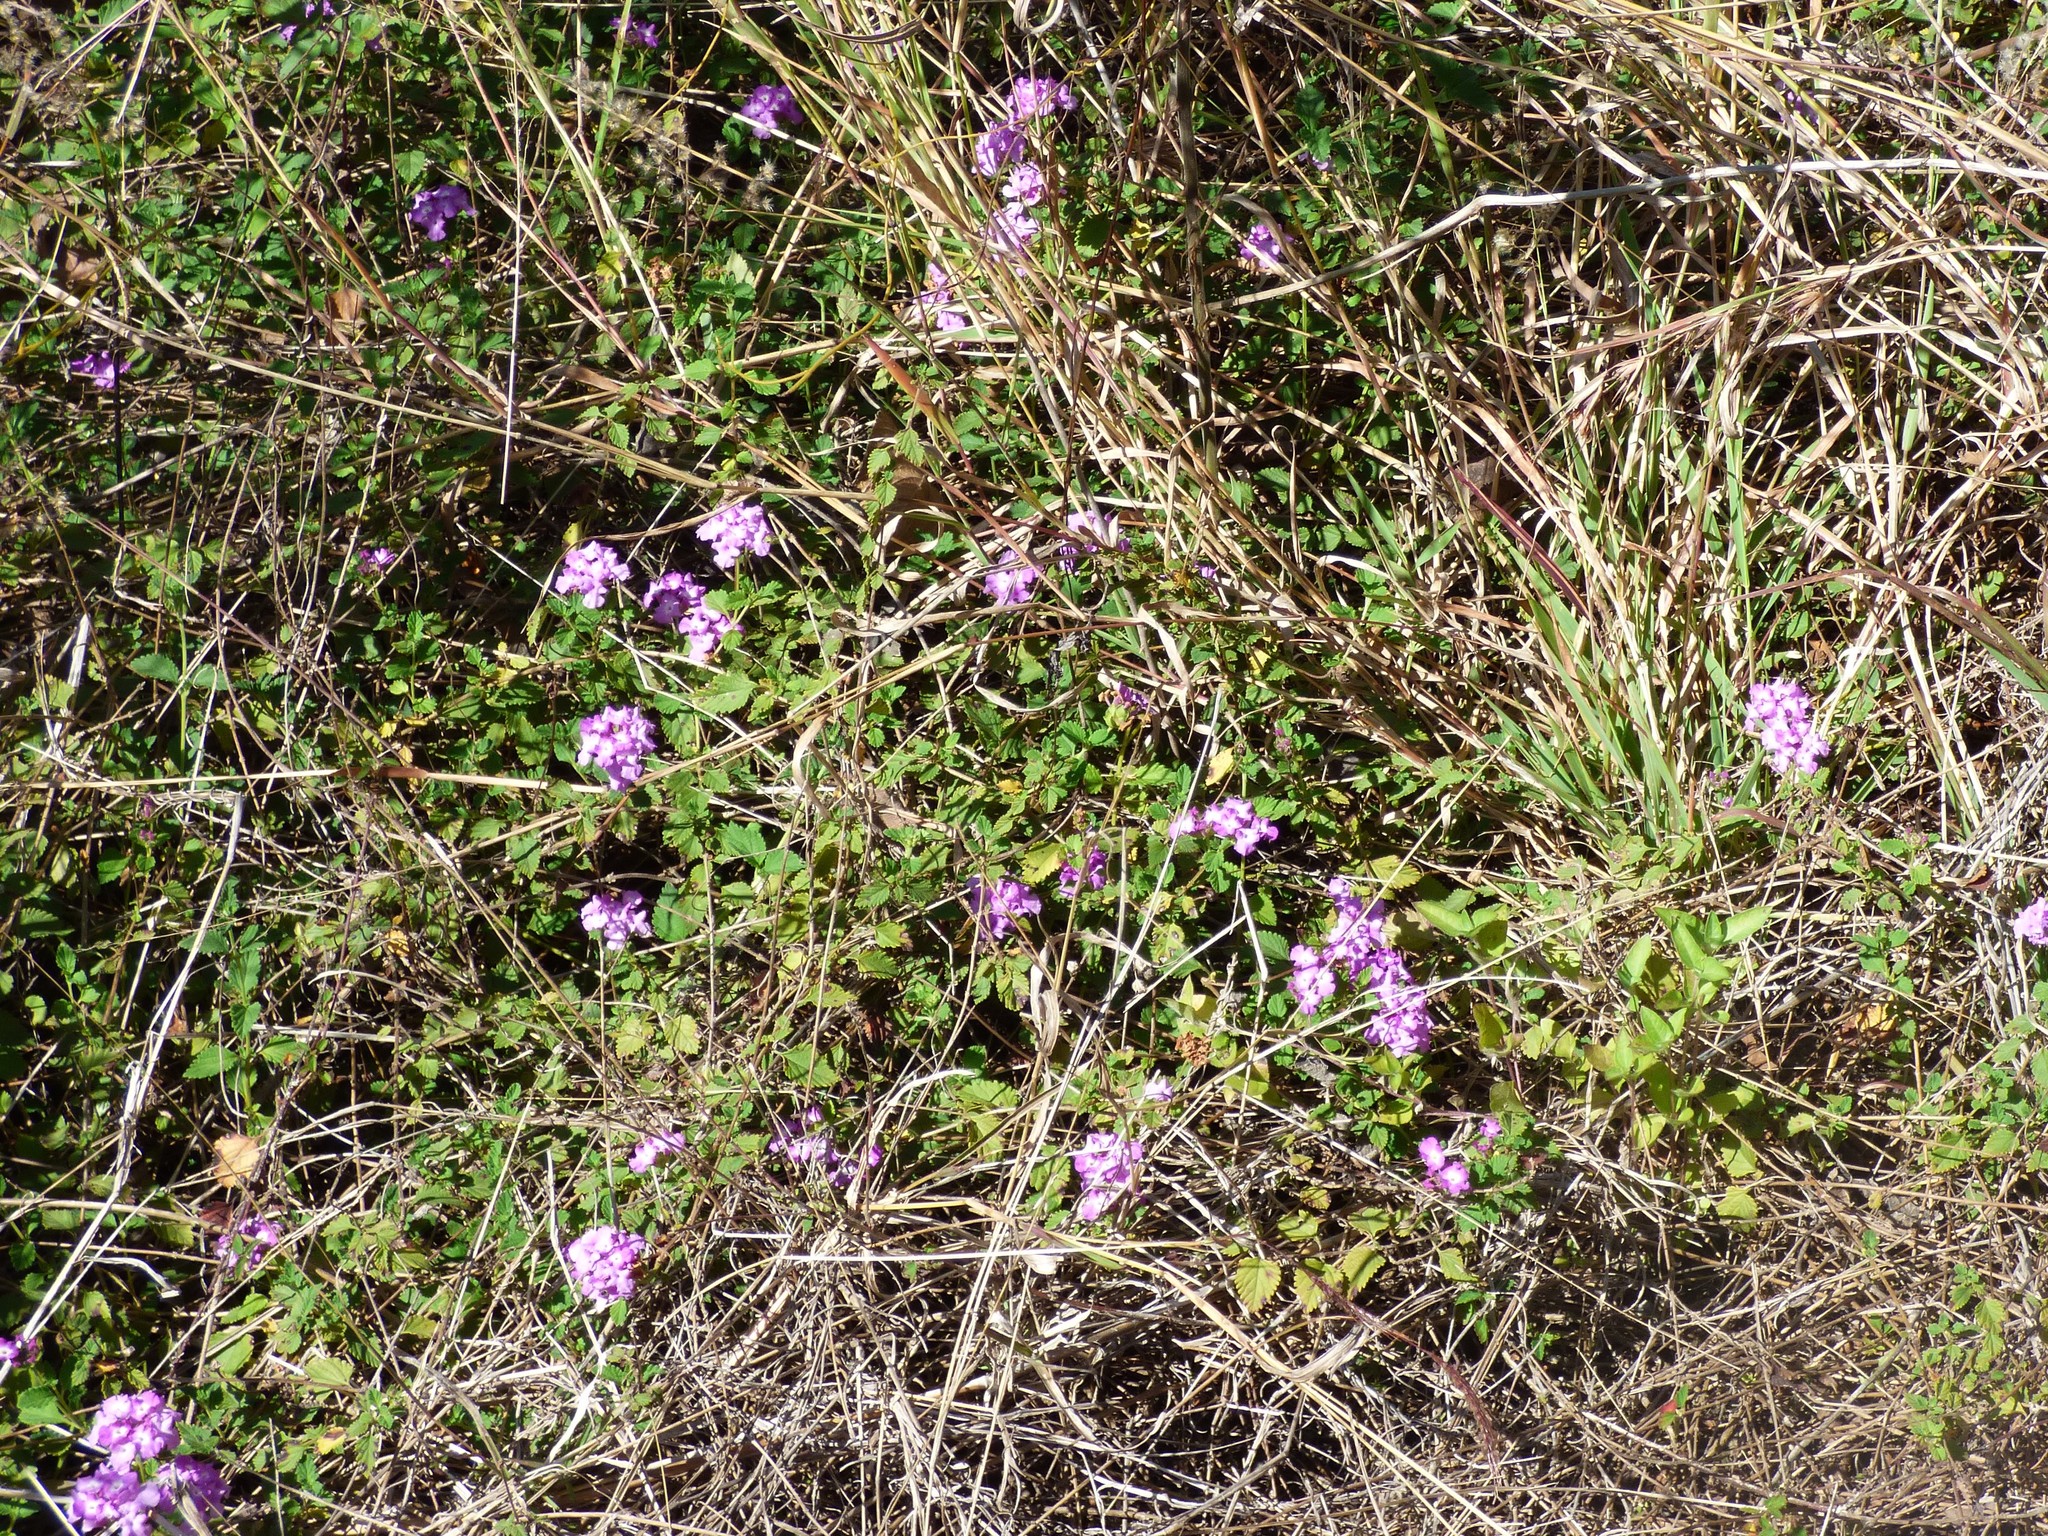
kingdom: Plantae
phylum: Tracheophyta
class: Magnoliopsida
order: Lamiales
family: Verbenaceae
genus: Lantana
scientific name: Lantana montevidensis
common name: Trailing shrubverbena
